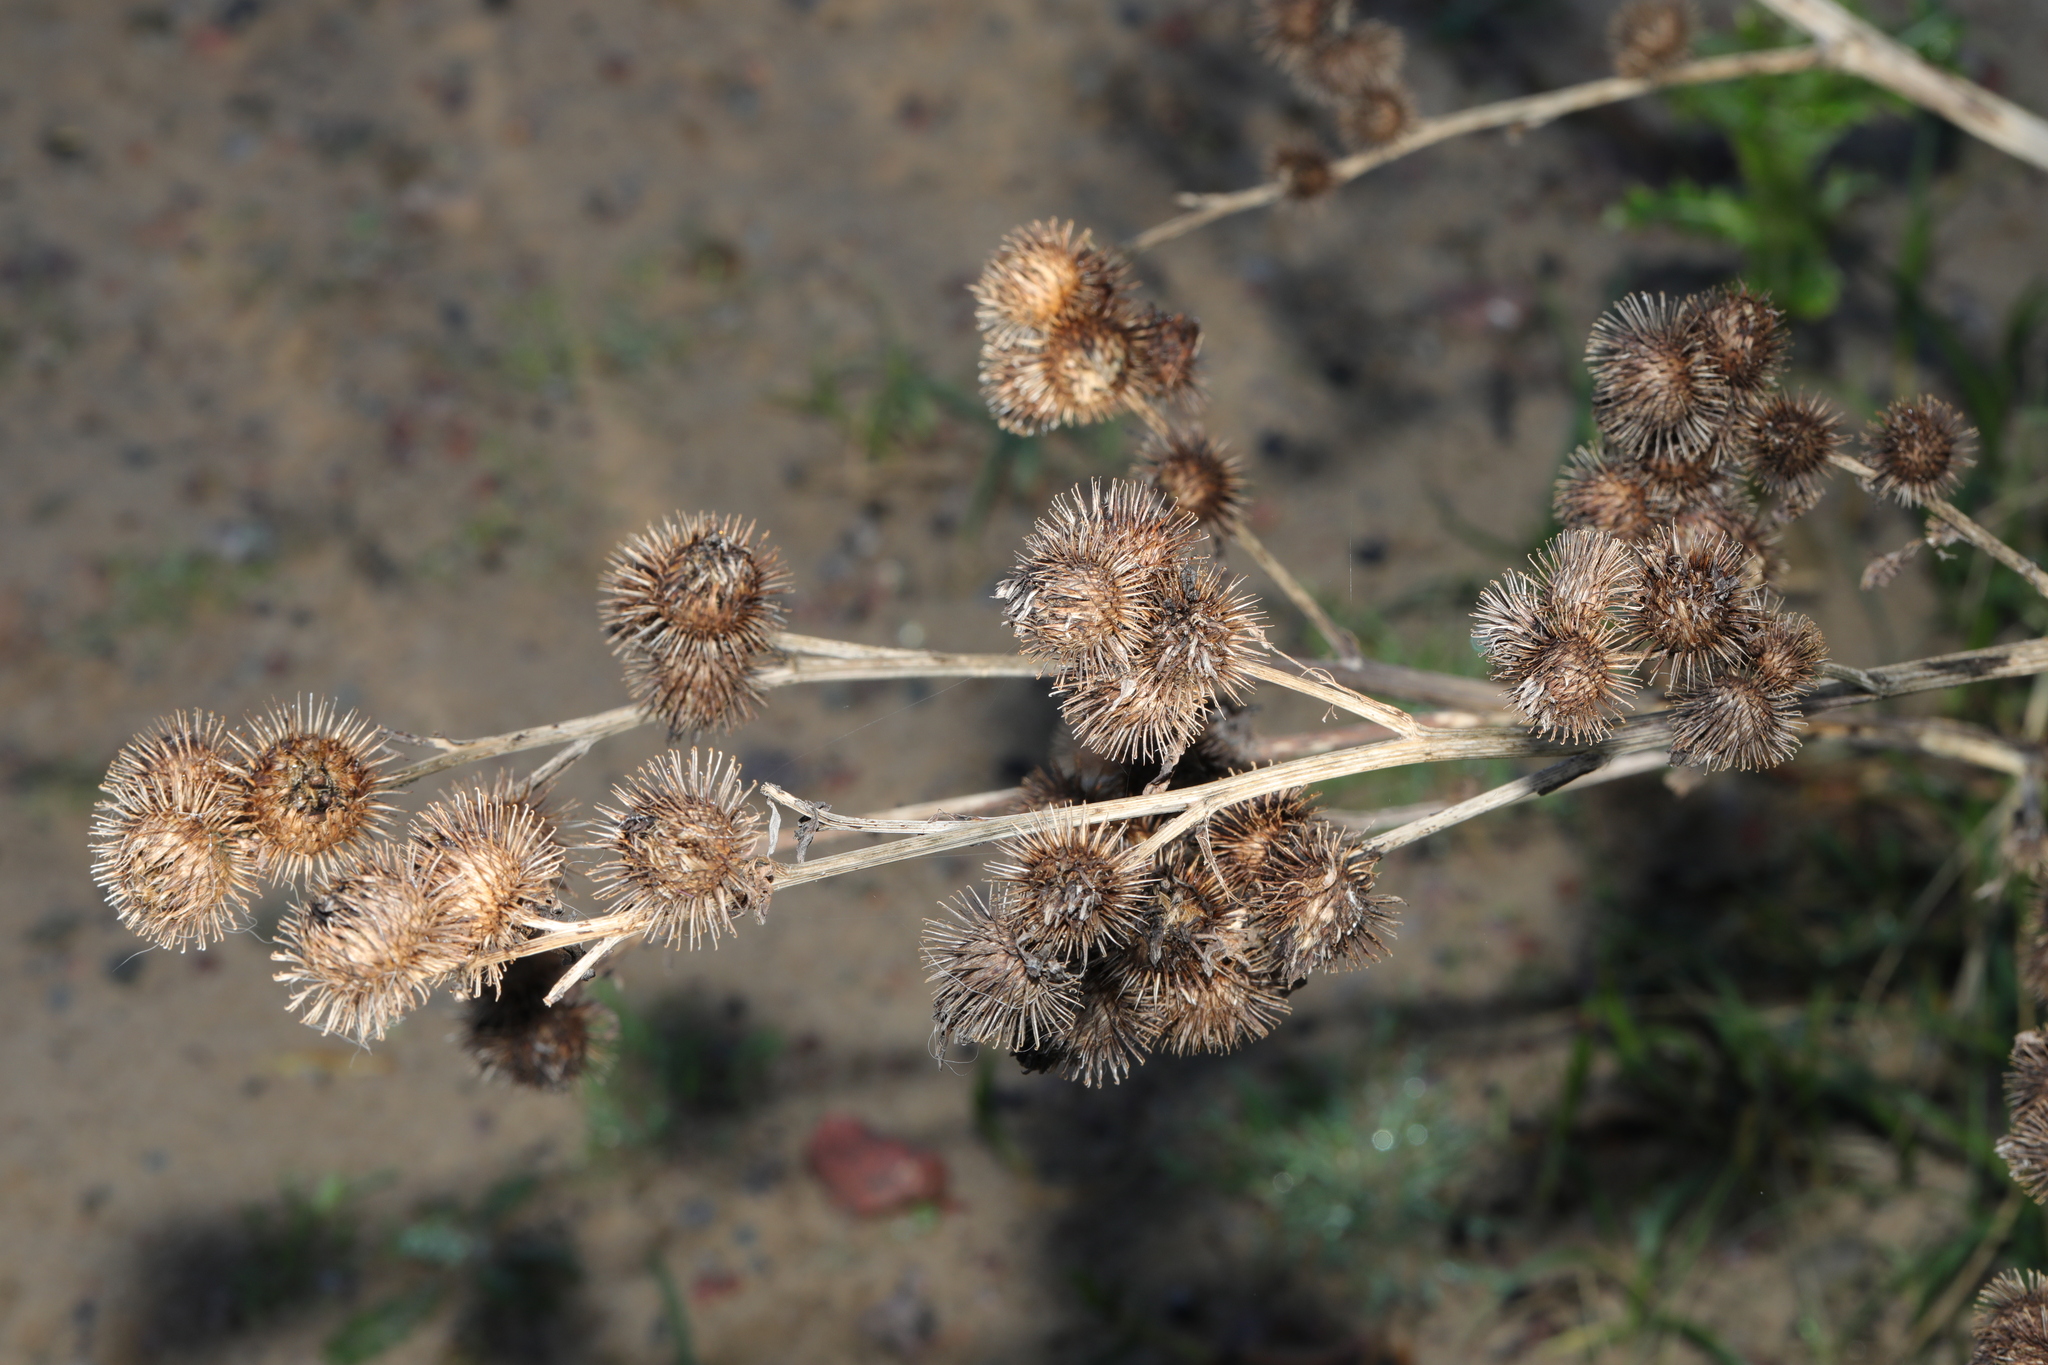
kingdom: Plantae
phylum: Tracheophyta
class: Magnoliopsida
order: Asterales
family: Asteraceae
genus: Arctium
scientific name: Arctium minus
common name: Lesser burdock
